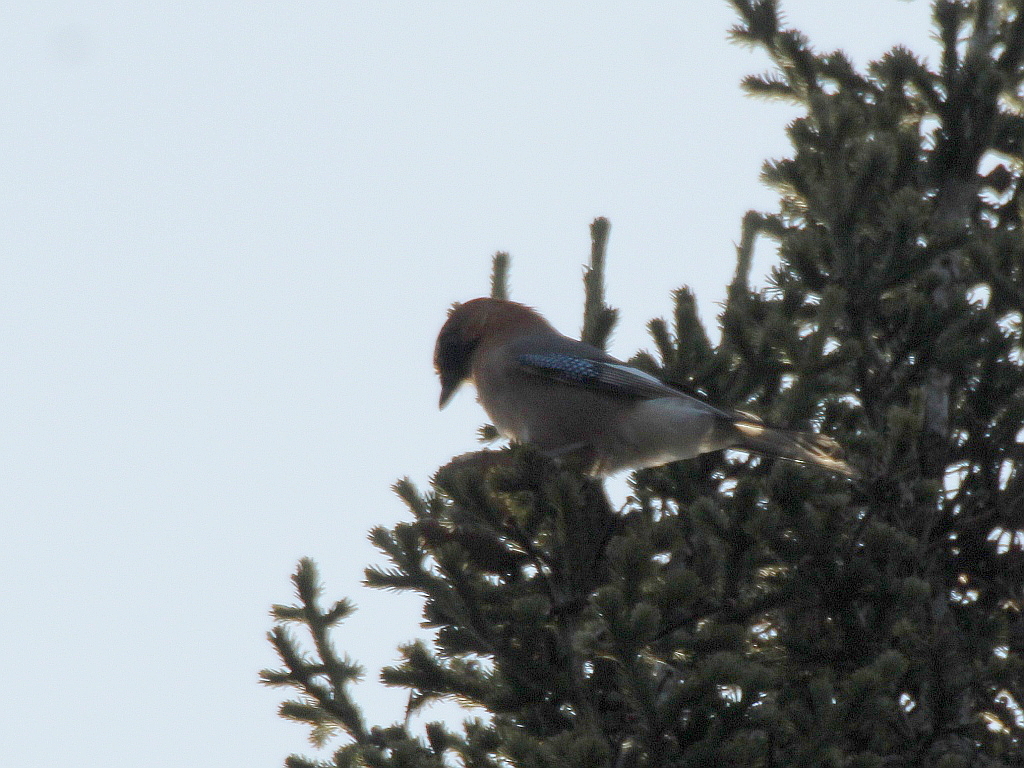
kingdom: Animalia
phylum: Chordata
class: Aves
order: Passeriformes
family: Corvidae
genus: Garrulus
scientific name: Garrulus glandarius
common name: Eurasian jay
